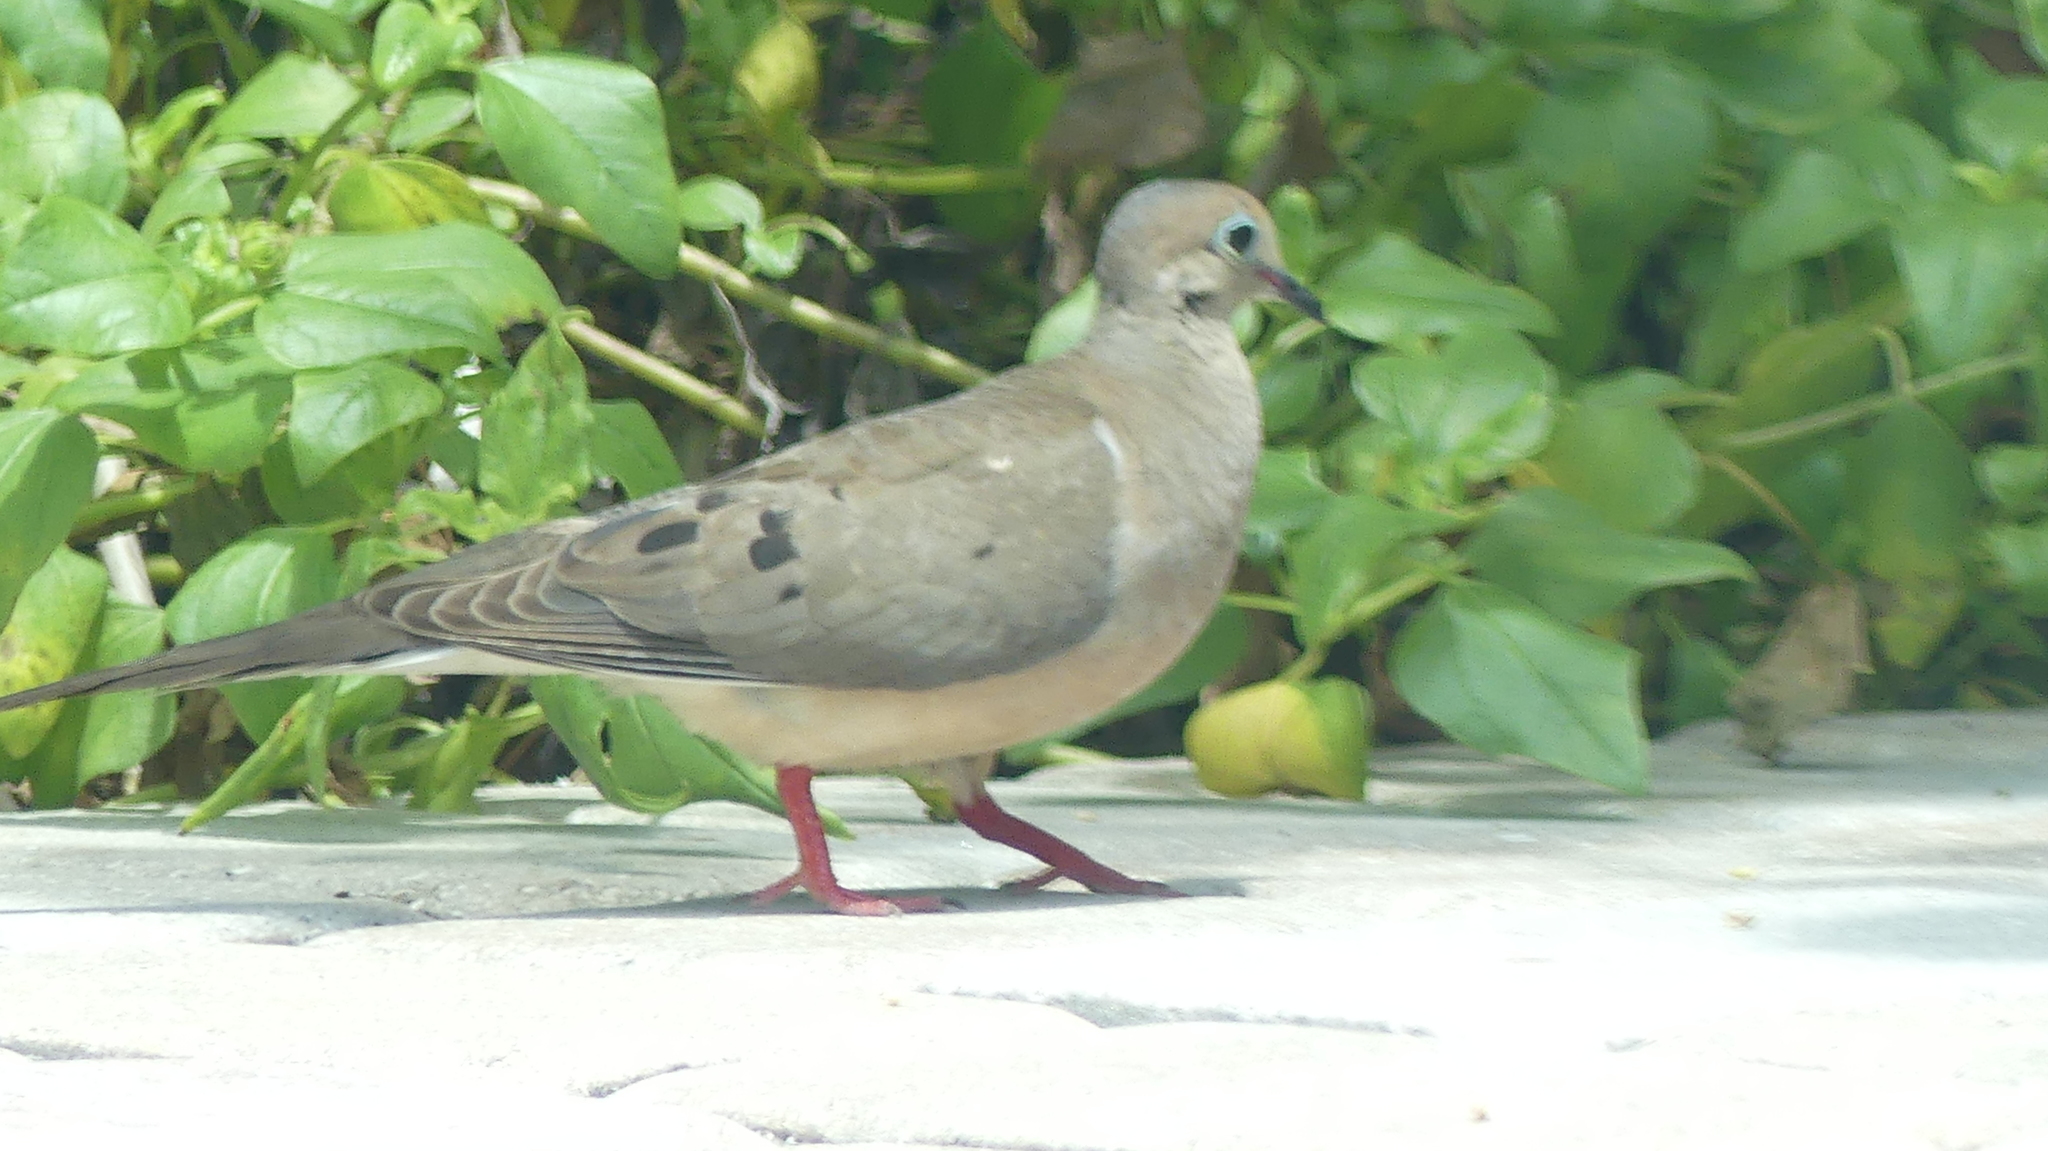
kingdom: Animalia
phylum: Chordata
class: Aves
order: Columbiformes
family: Columbidae
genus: Zenaida
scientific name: Zenaida macroura
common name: Mourning dove
